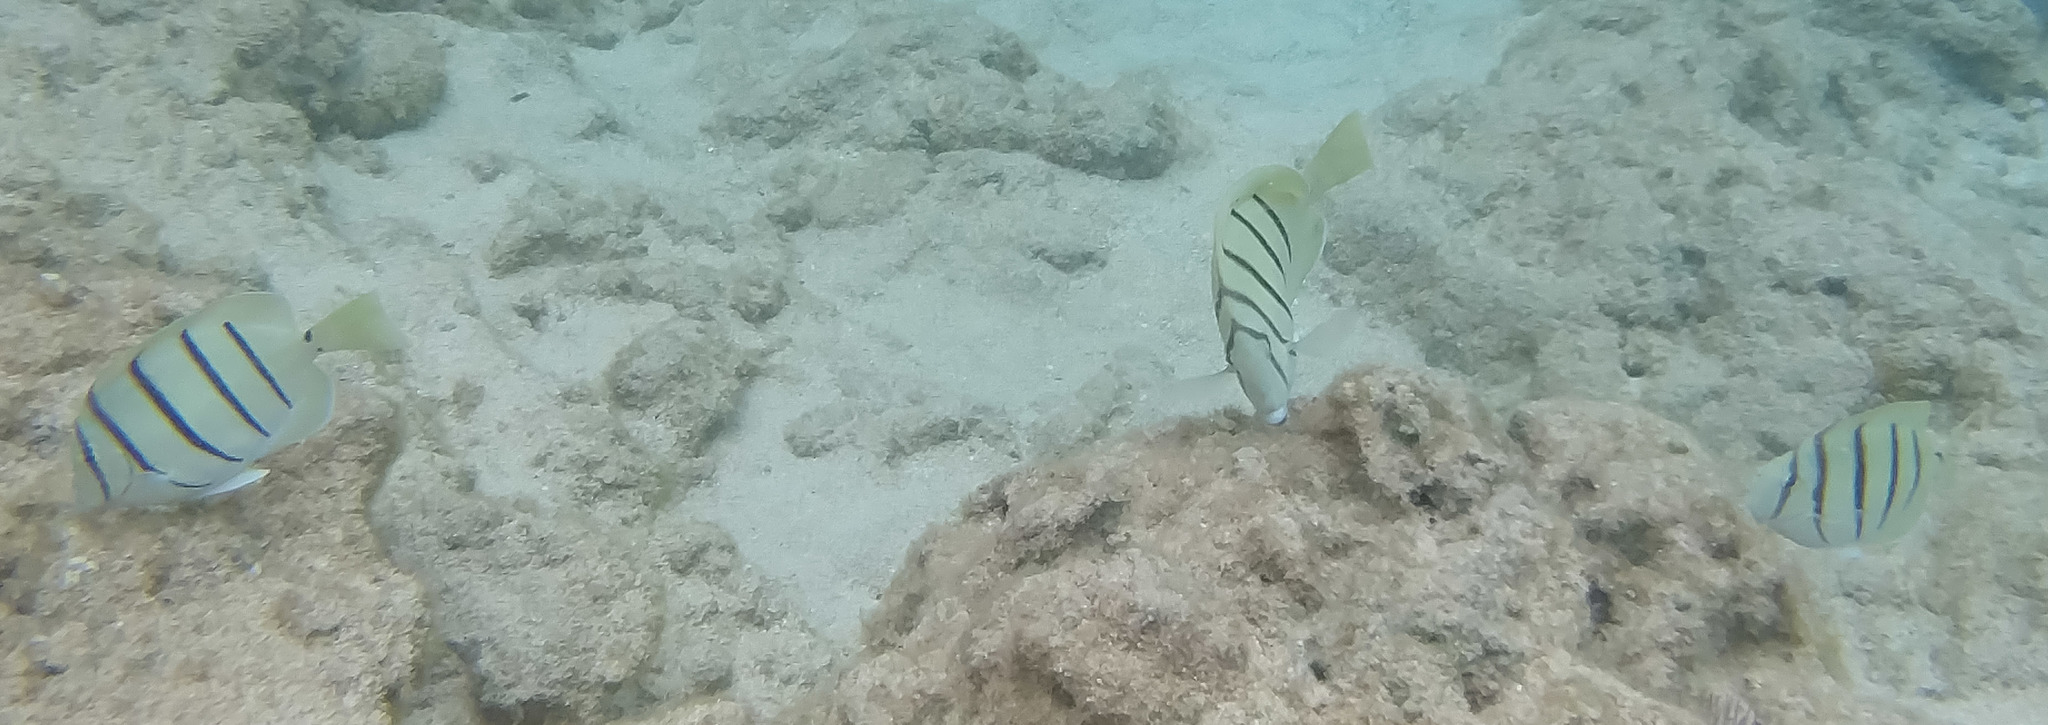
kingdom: Animalia
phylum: Chordata
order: Perciformes
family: Acanthuridae
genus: Acanthurus
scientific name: Acanthurus triostegus
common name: Convict surgeonfish
